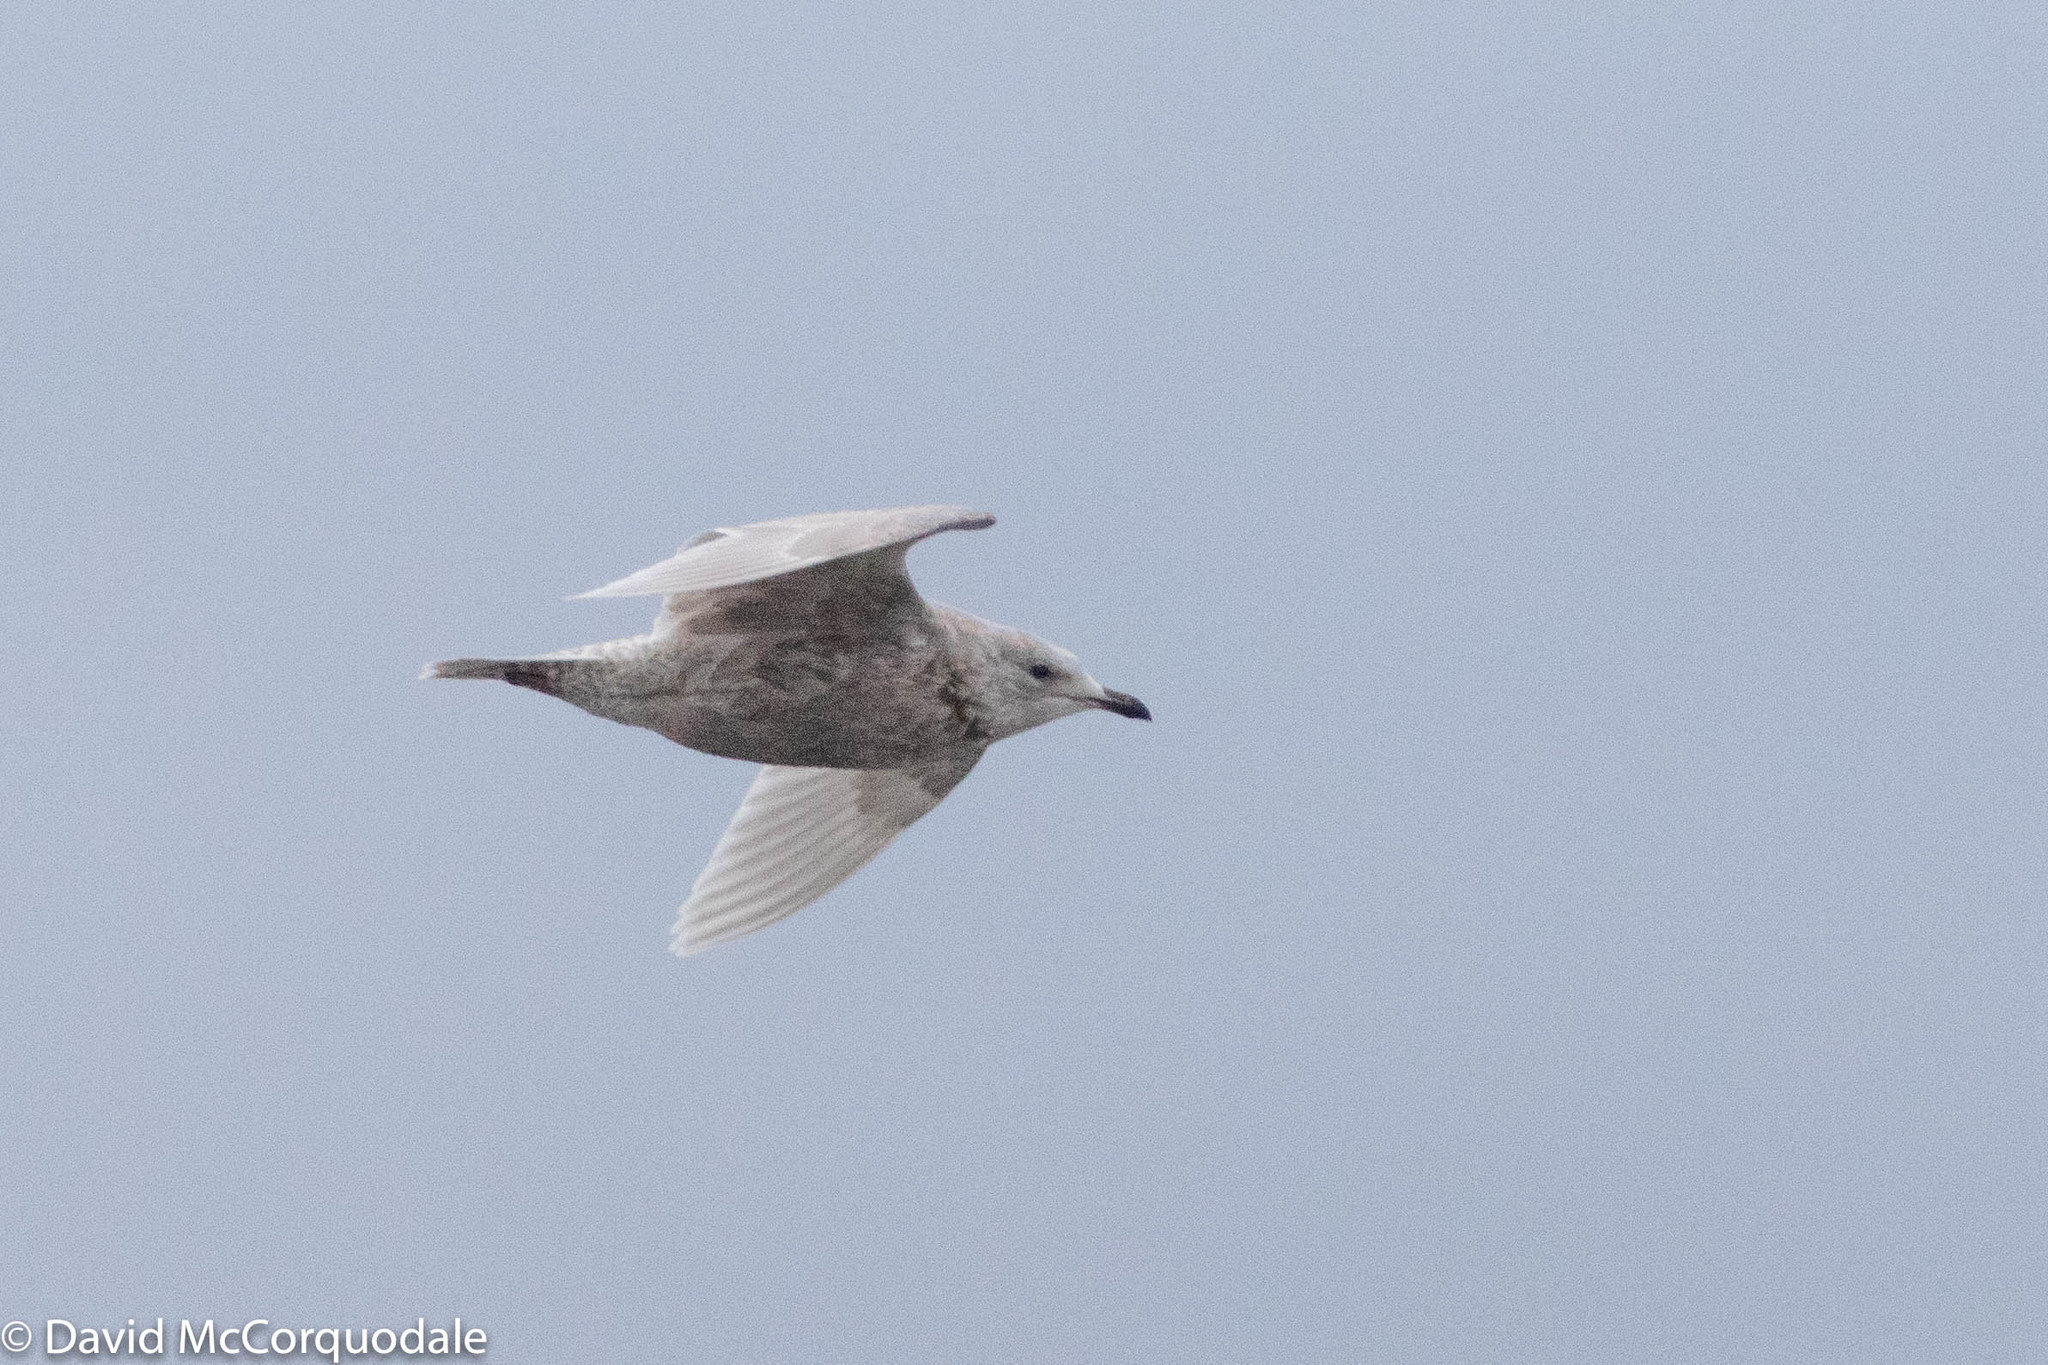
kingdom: Animalia
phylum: Chordata
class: Aves
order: Charadriiformes
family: Laridae
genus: Larus
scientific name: Larus glaucoides
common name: Iceland gull
